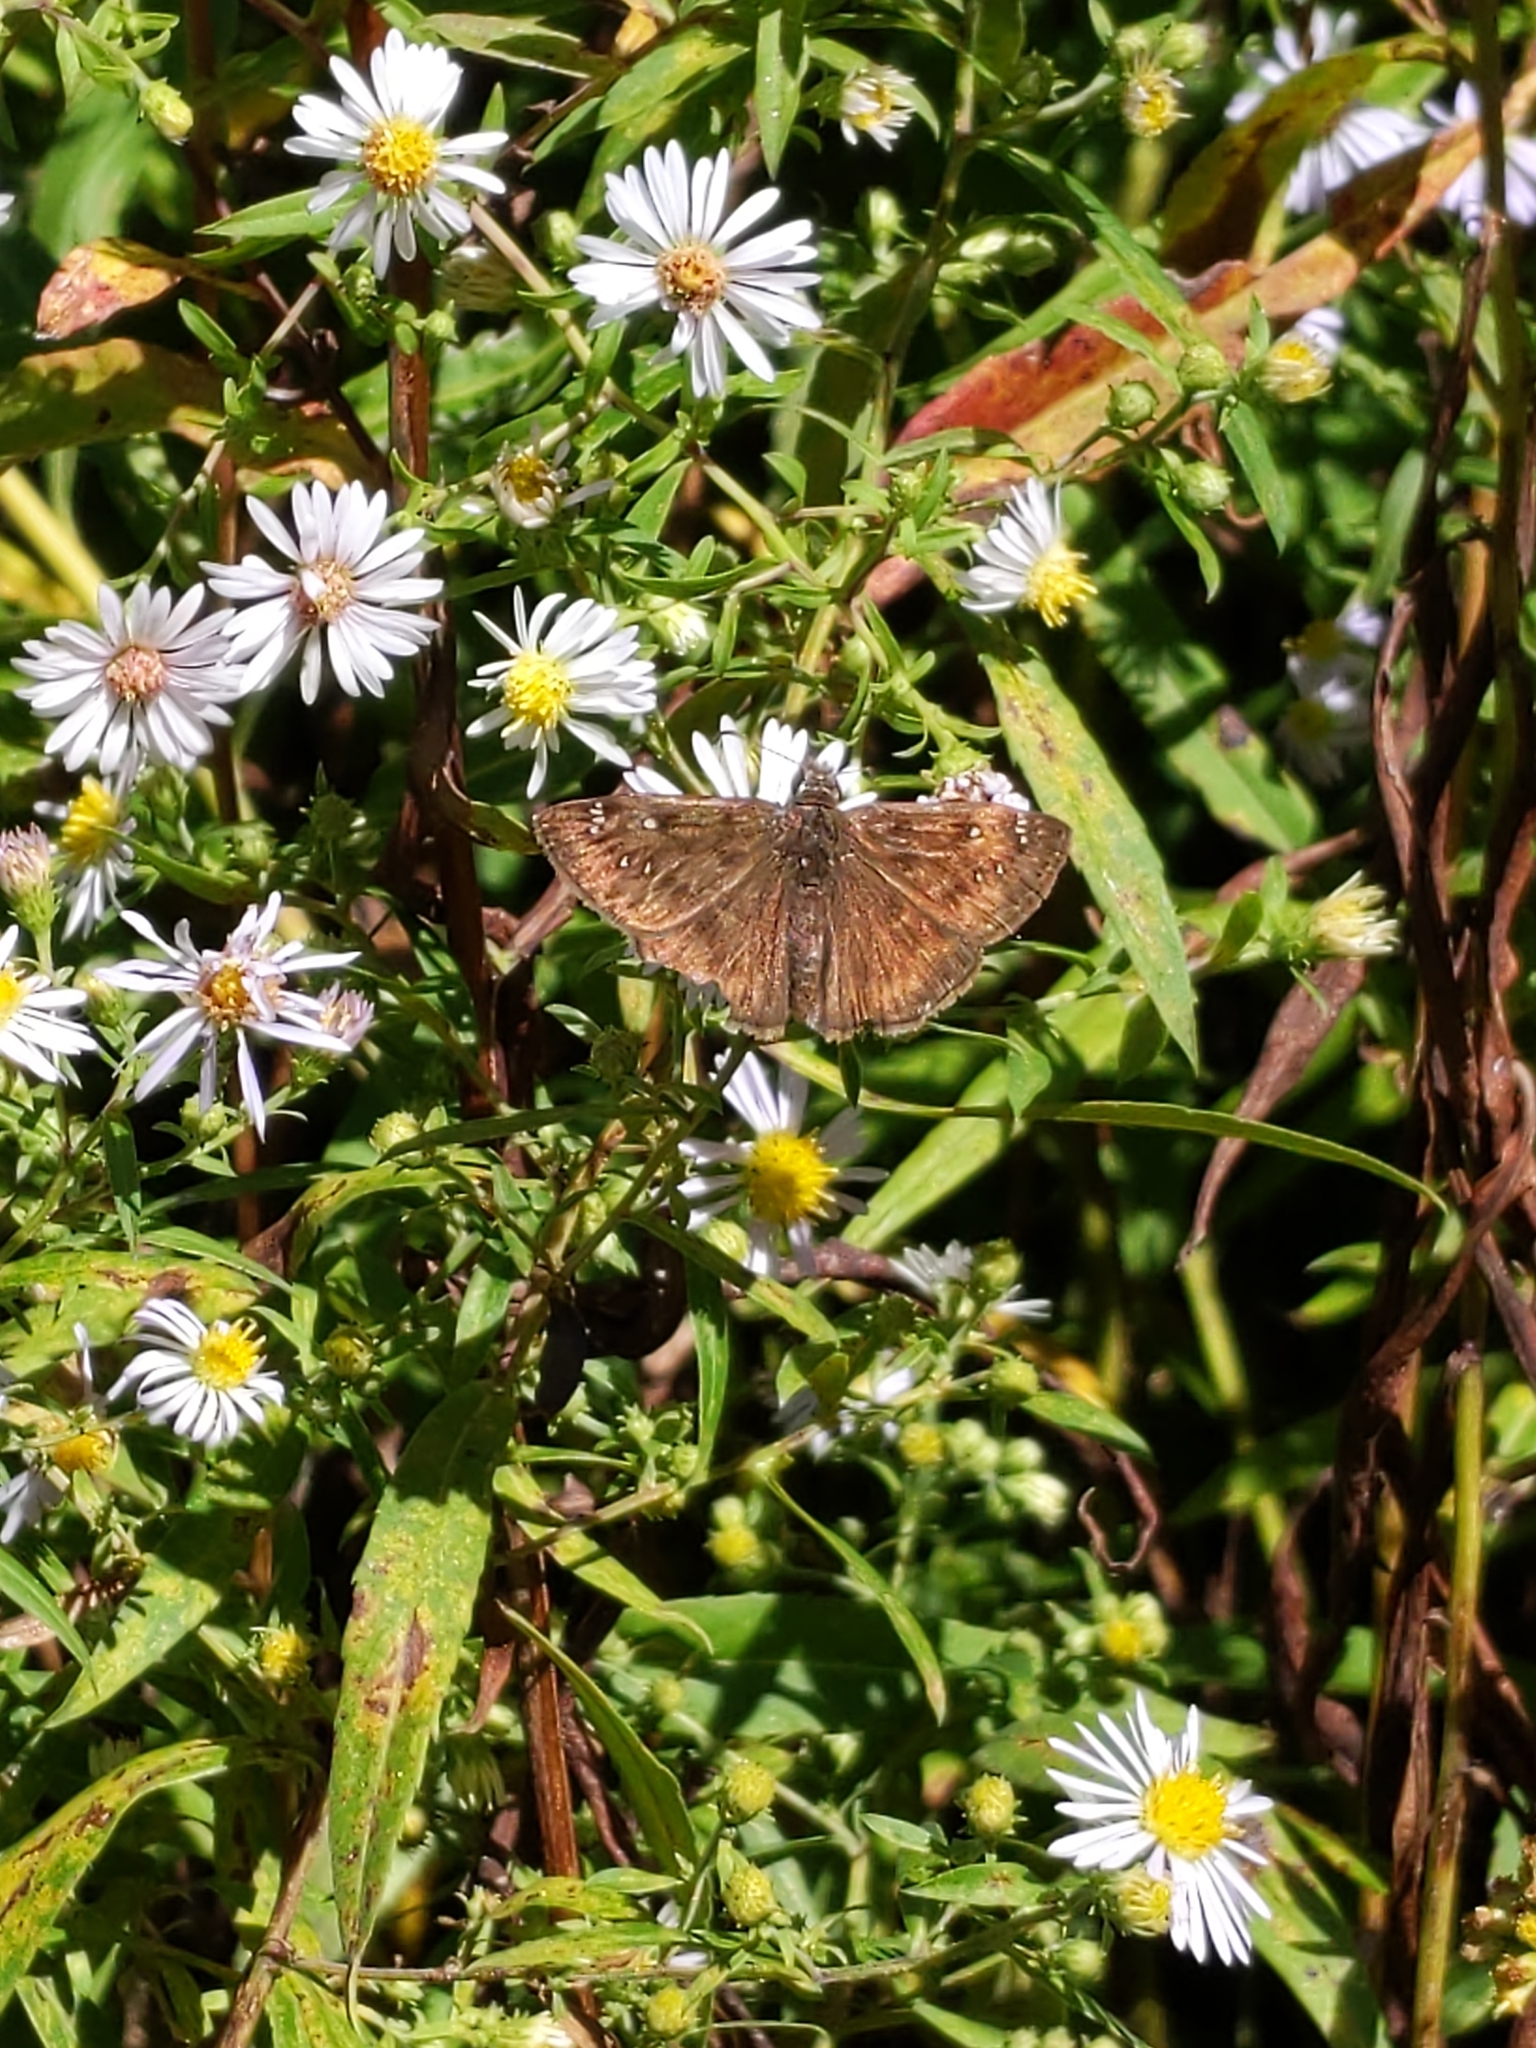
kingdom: Animalia
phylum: Arthropoda
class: Insecta
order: Lepidoptera
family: Hesperiidae
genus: Erynnis
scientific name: Erynnis horatius
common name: Horace's duskywing
